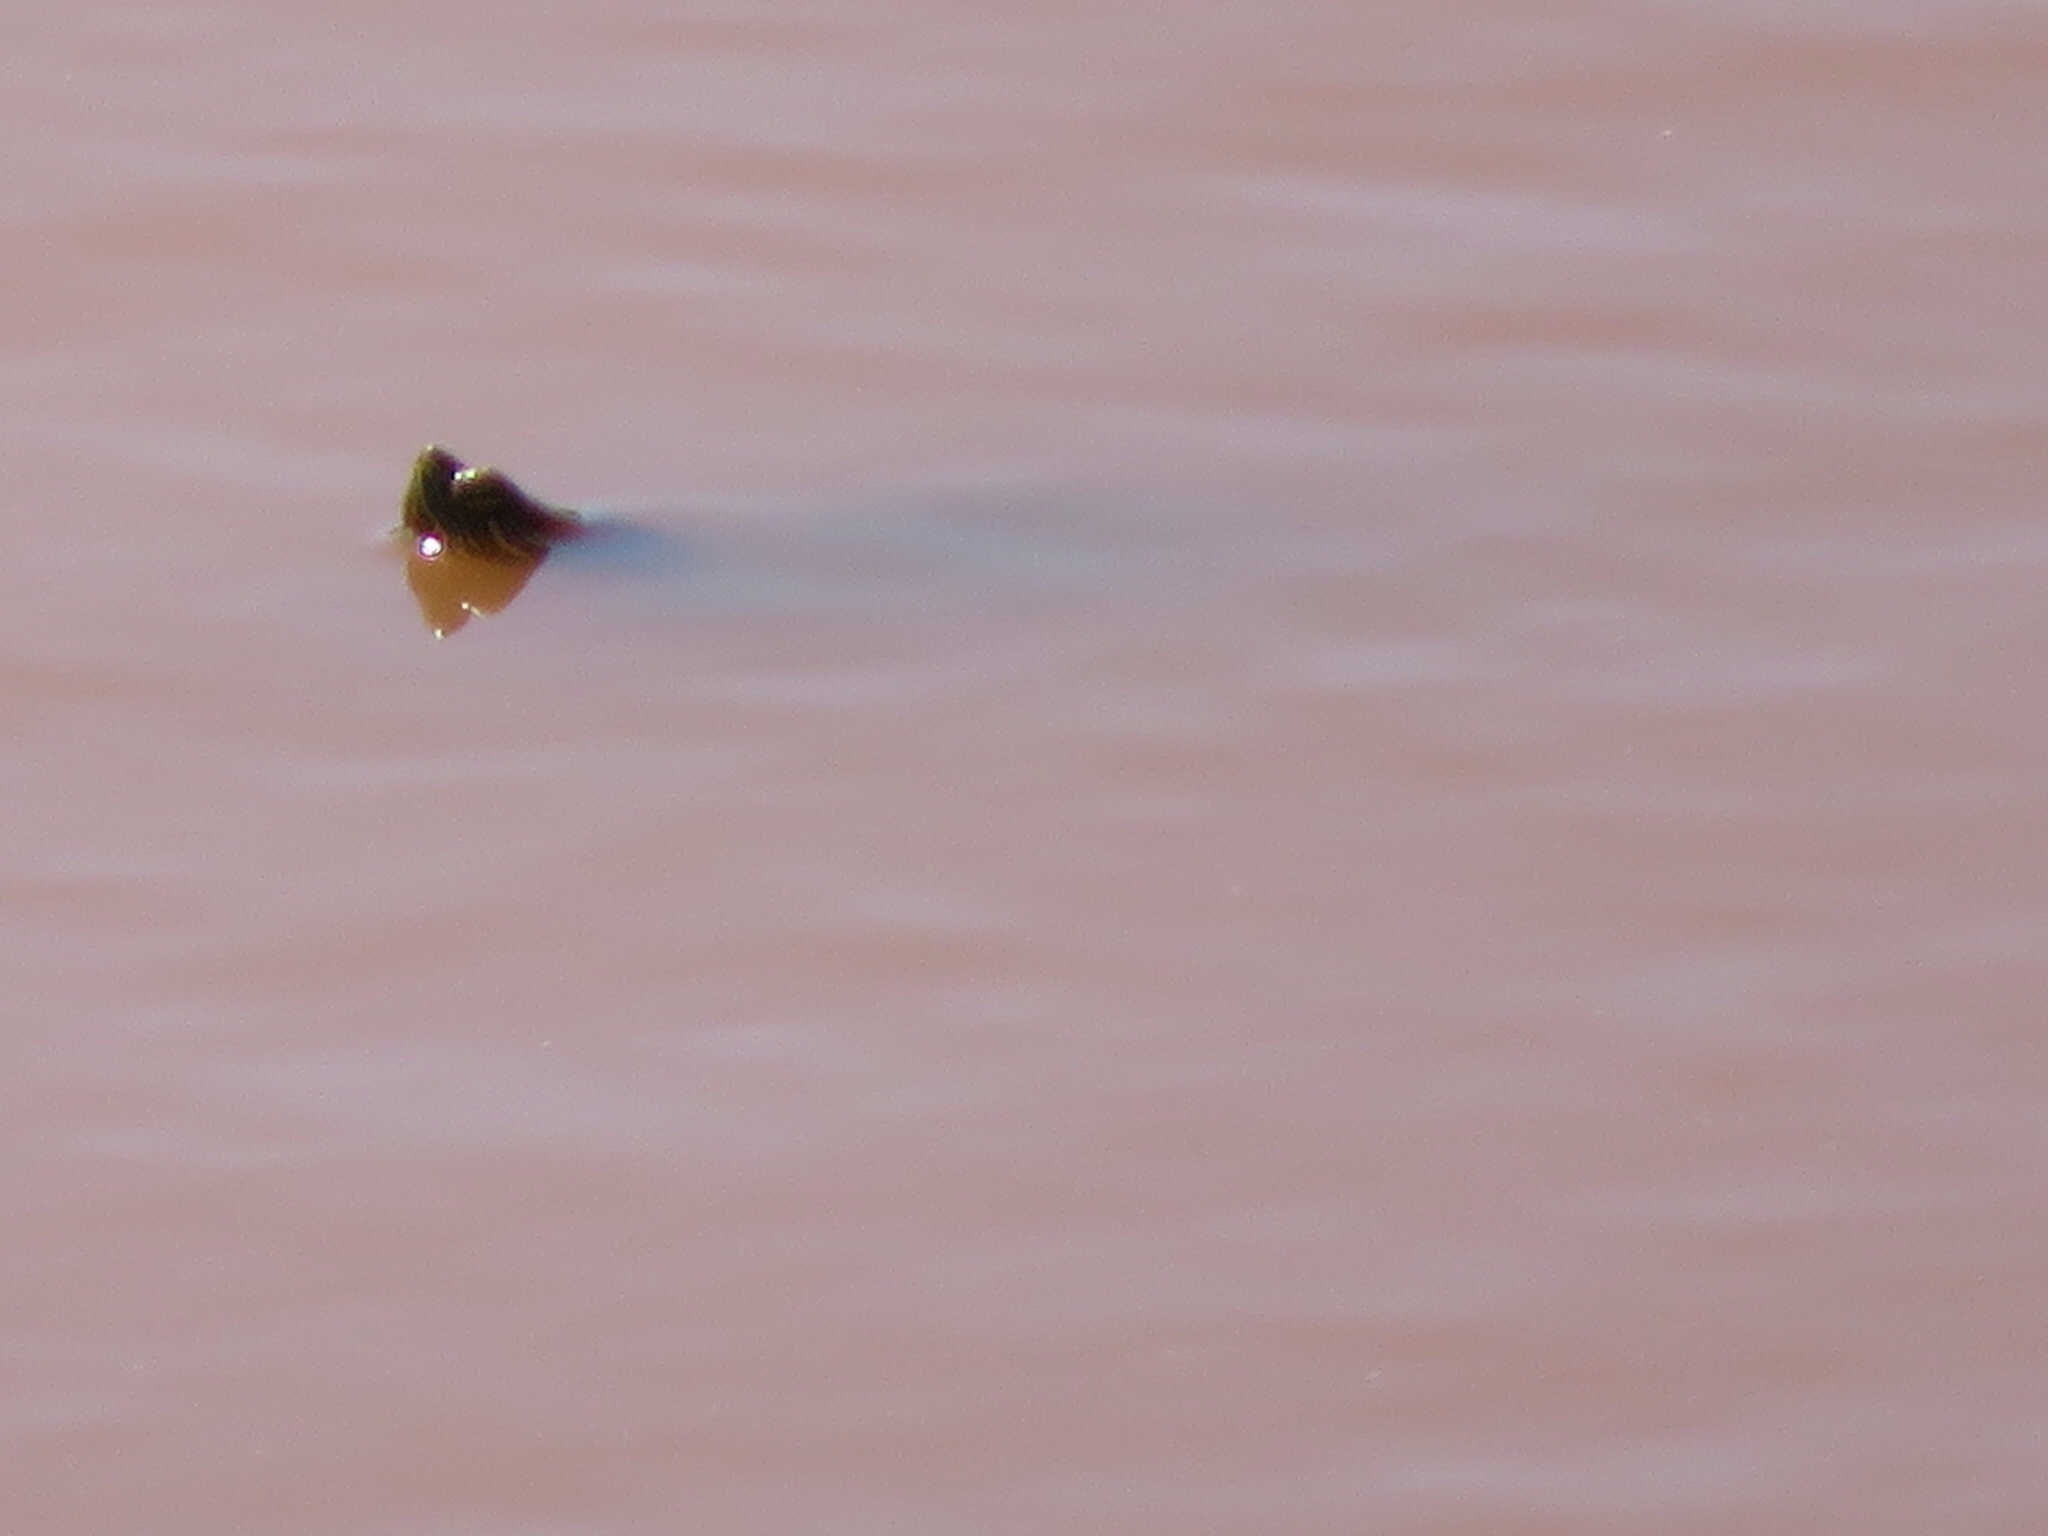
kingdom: Animalia
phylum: Chordata
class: Testudines
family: Emydidae
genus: Trachemys
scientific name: Trachemys scripta
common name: Slider
